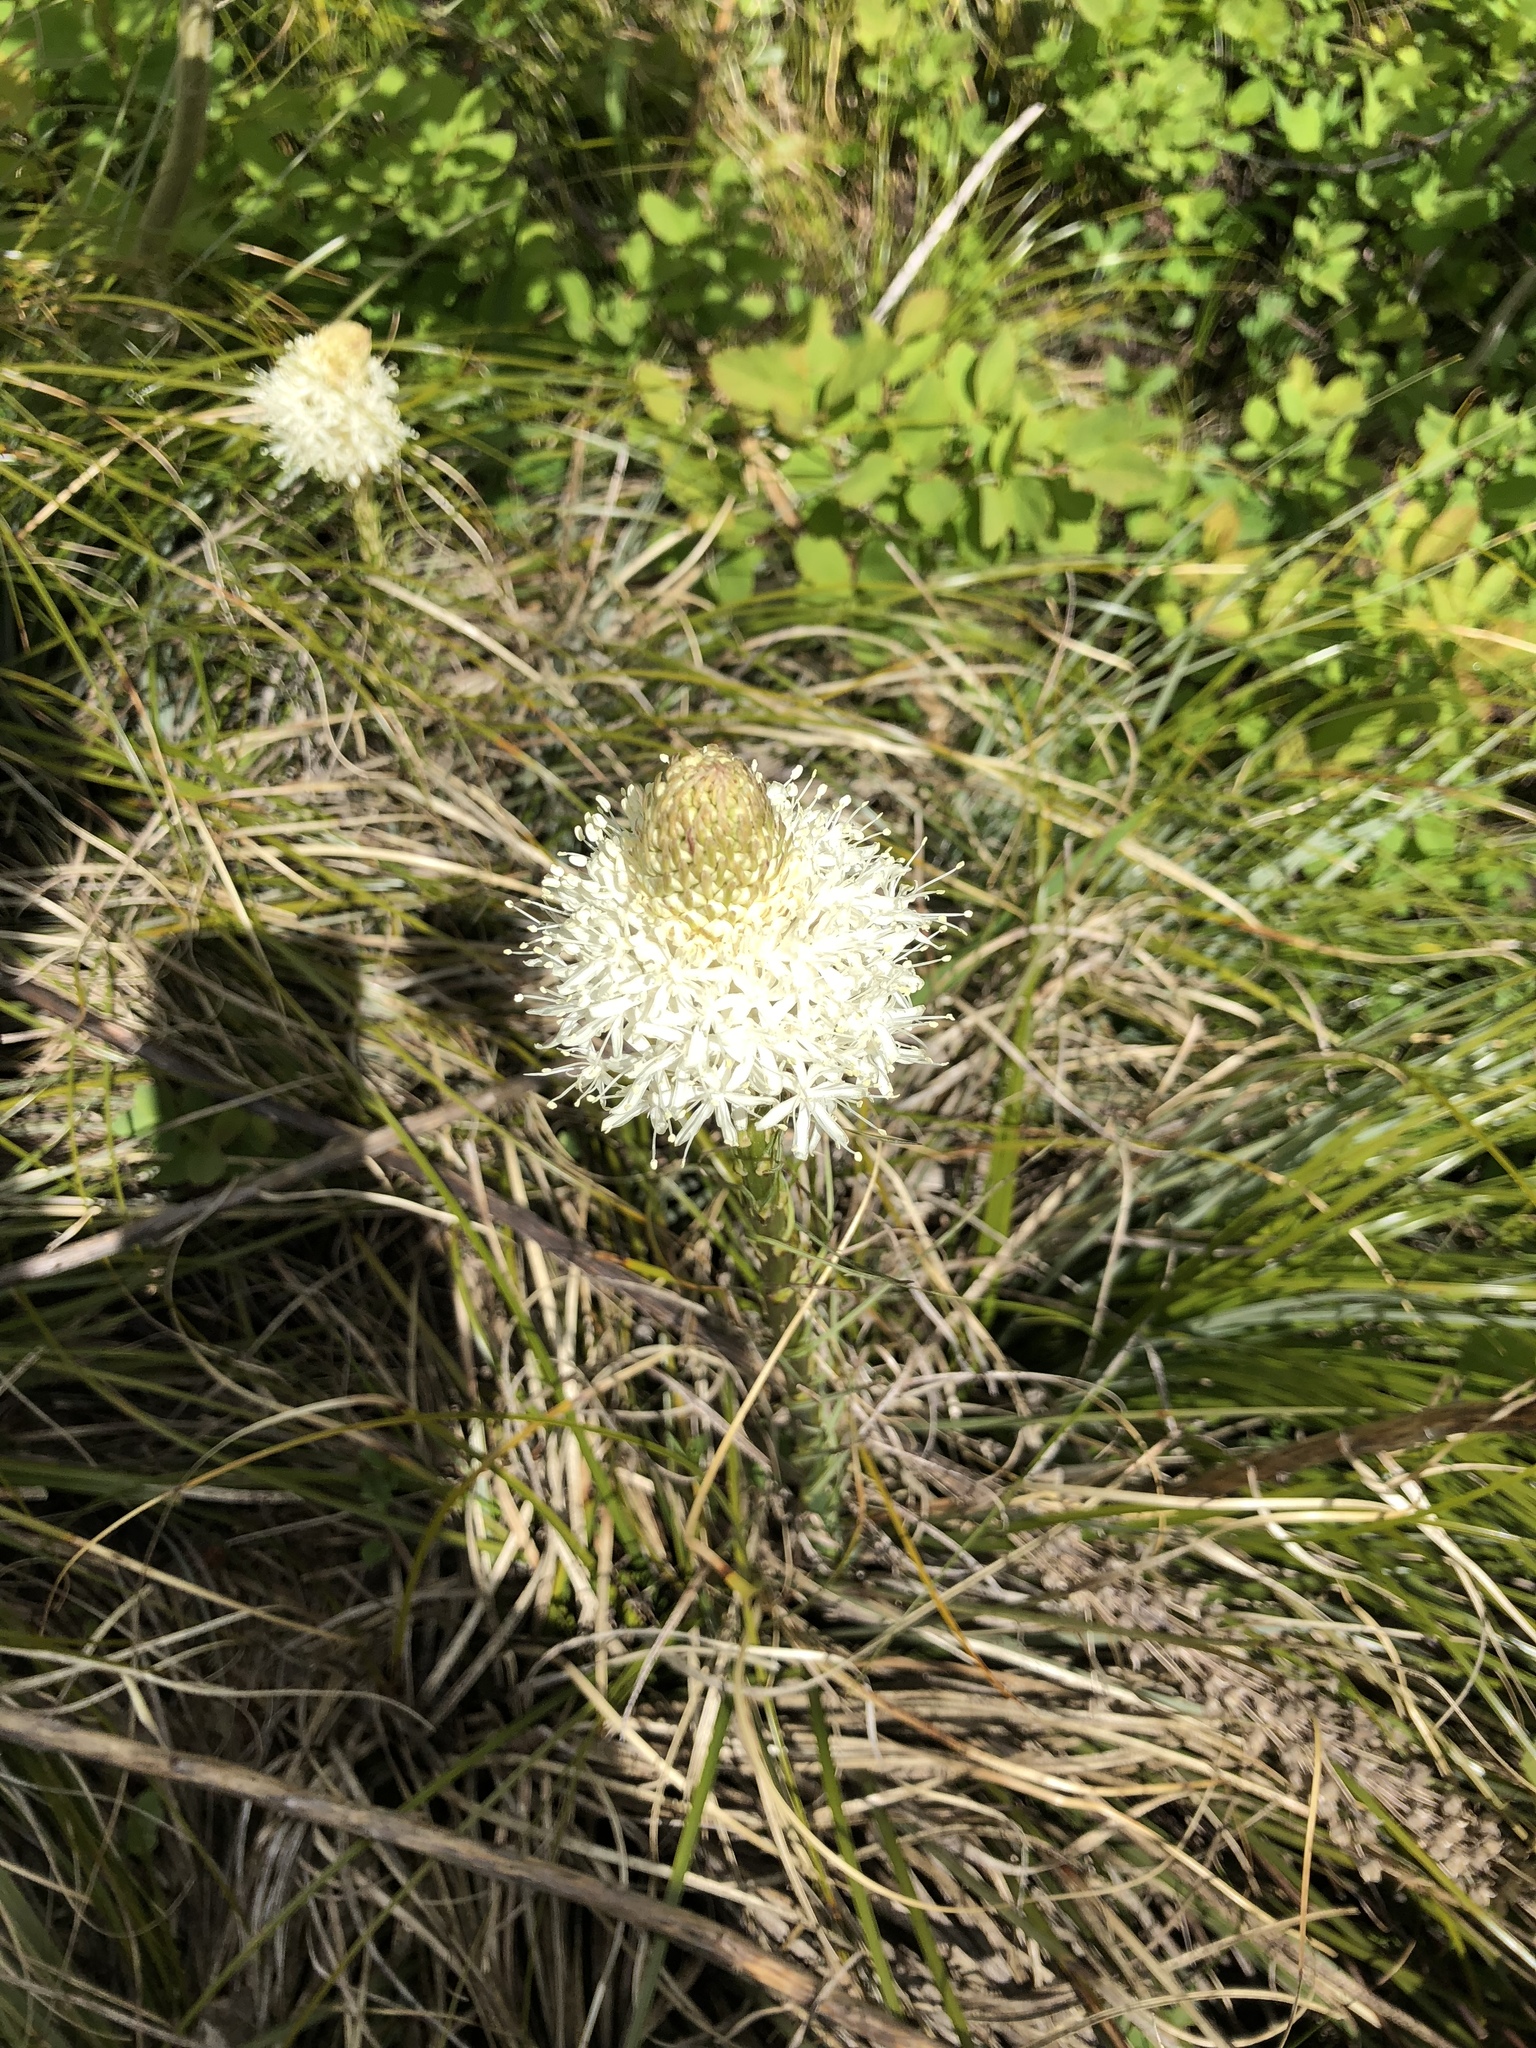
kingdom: Plantae
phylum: Tracheophyta
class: Liliopsida
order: Liliales
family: Melanthiaceae
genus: Xerophyllum
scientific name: Xerophyllum tenax
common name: Bear-grass
